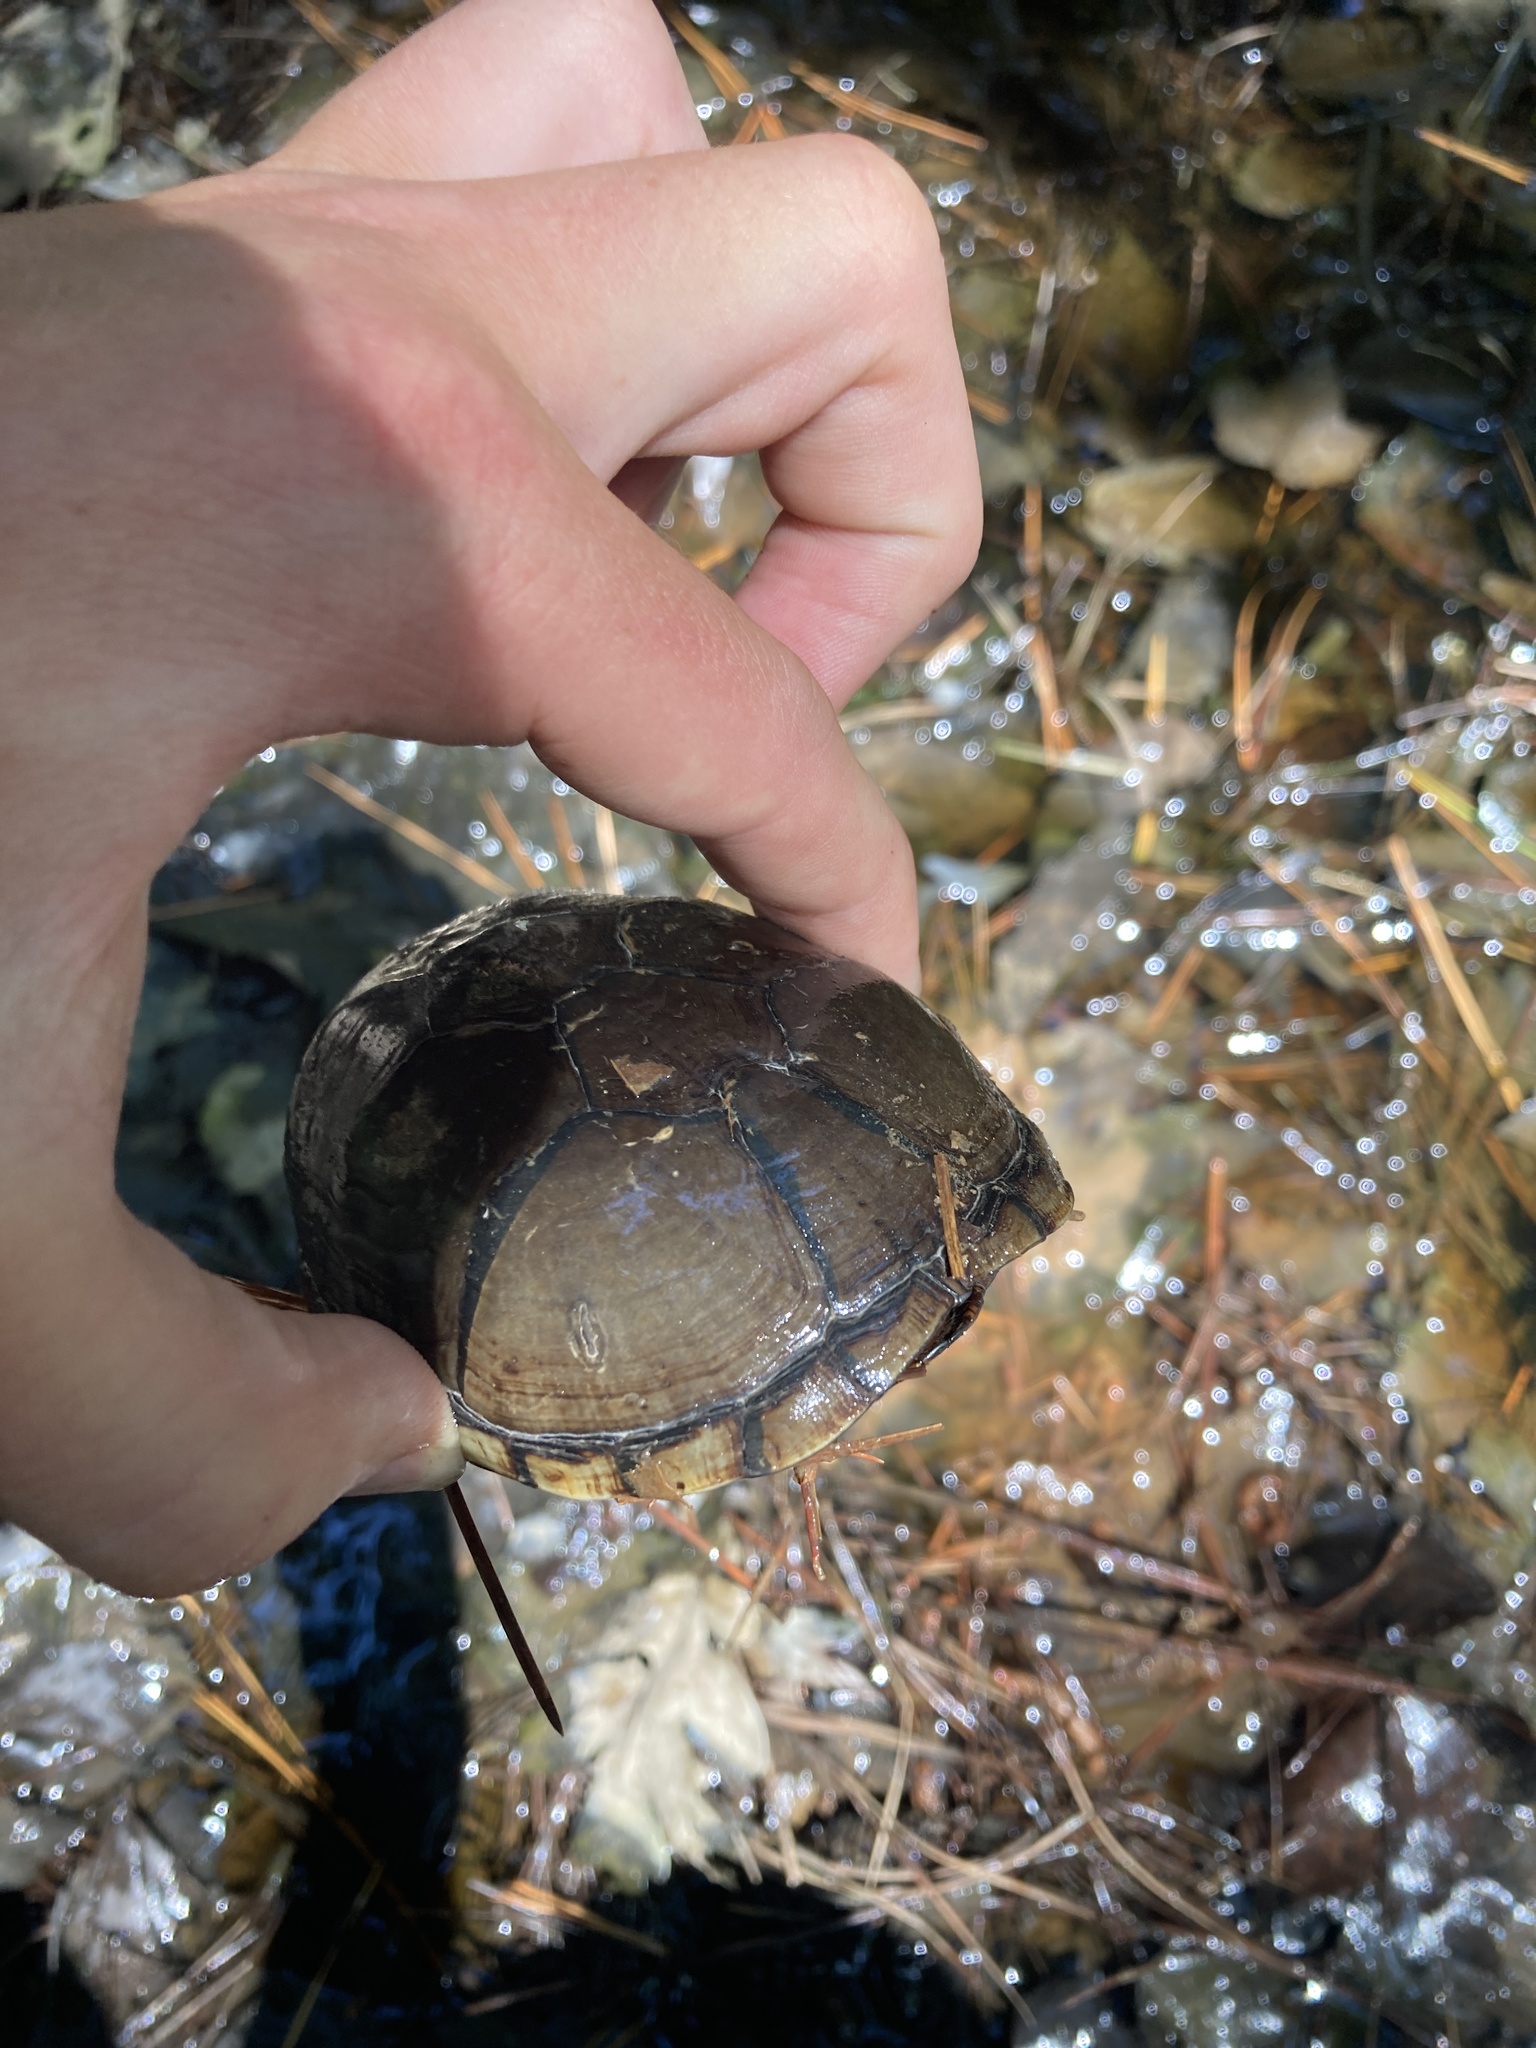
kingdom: Animalia
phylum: Chordata
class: Testudines
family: Kinosternidae
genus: Kinosternon
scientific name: Kinosternon subrubrum
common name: Eastern mud turtle
